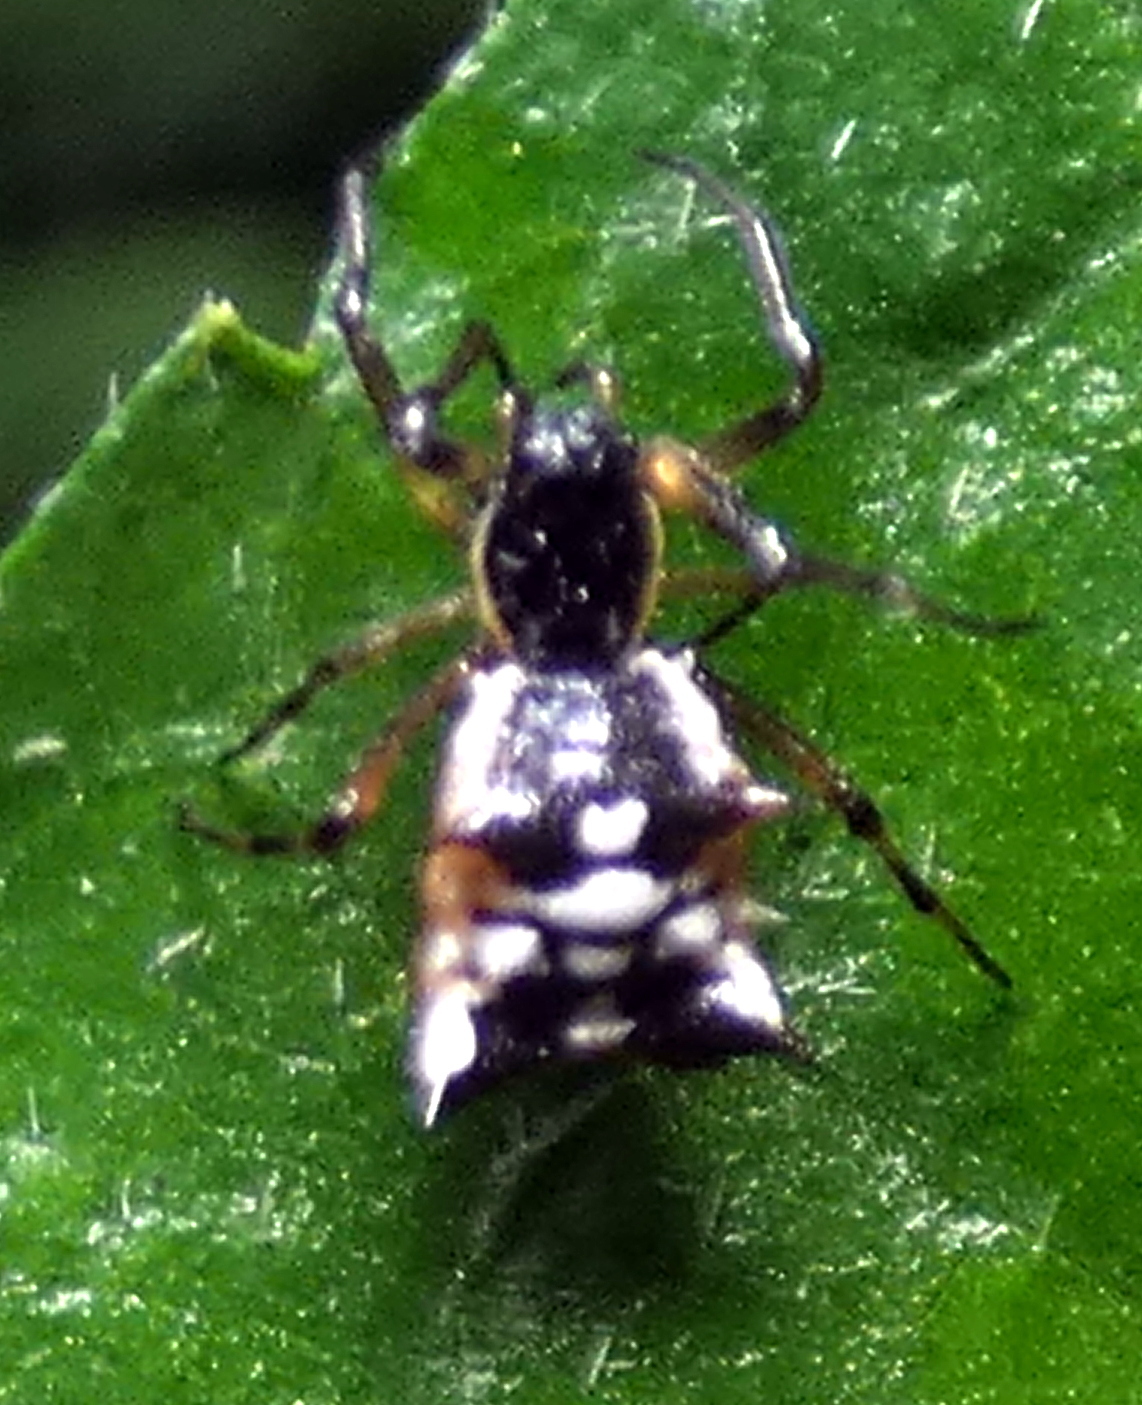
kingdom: Animalia
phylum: Arthropoda
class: Arachnida
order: Araneae
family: Araneidae
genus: Micrathena
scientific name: Micrathena picta
